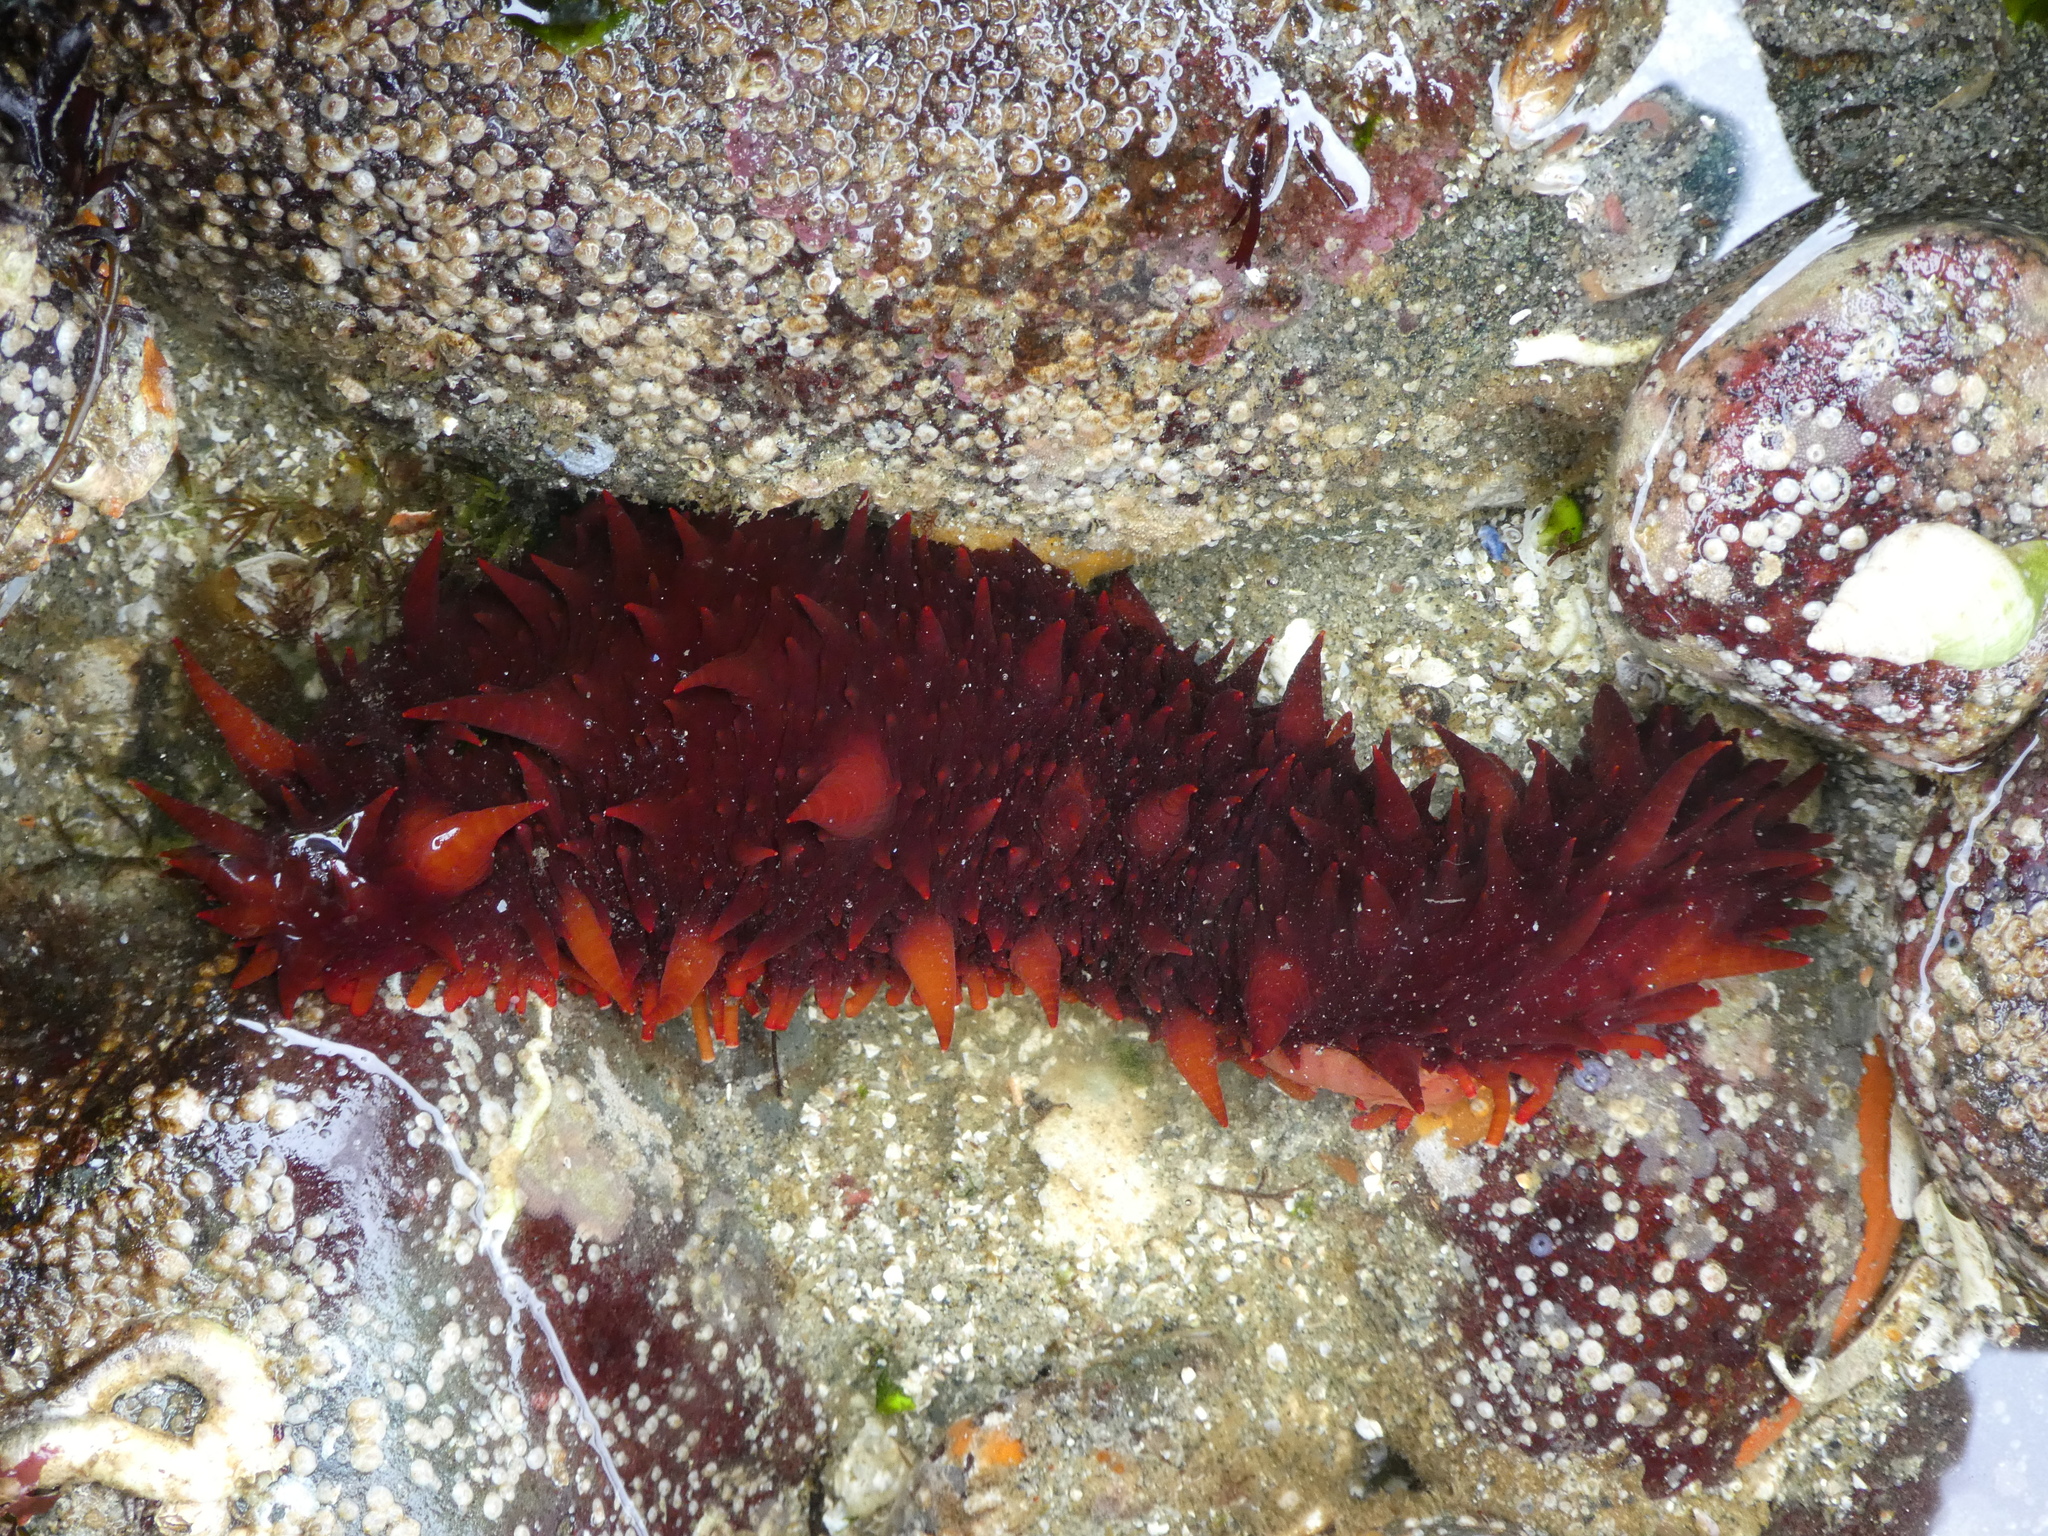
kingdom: Animalia
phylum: Echinodermata
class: Holothuroidea
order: Synallactida
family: Stichopodidae
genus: Apostichopus
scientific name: Apostichopus californicus
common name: California sea cucumber
